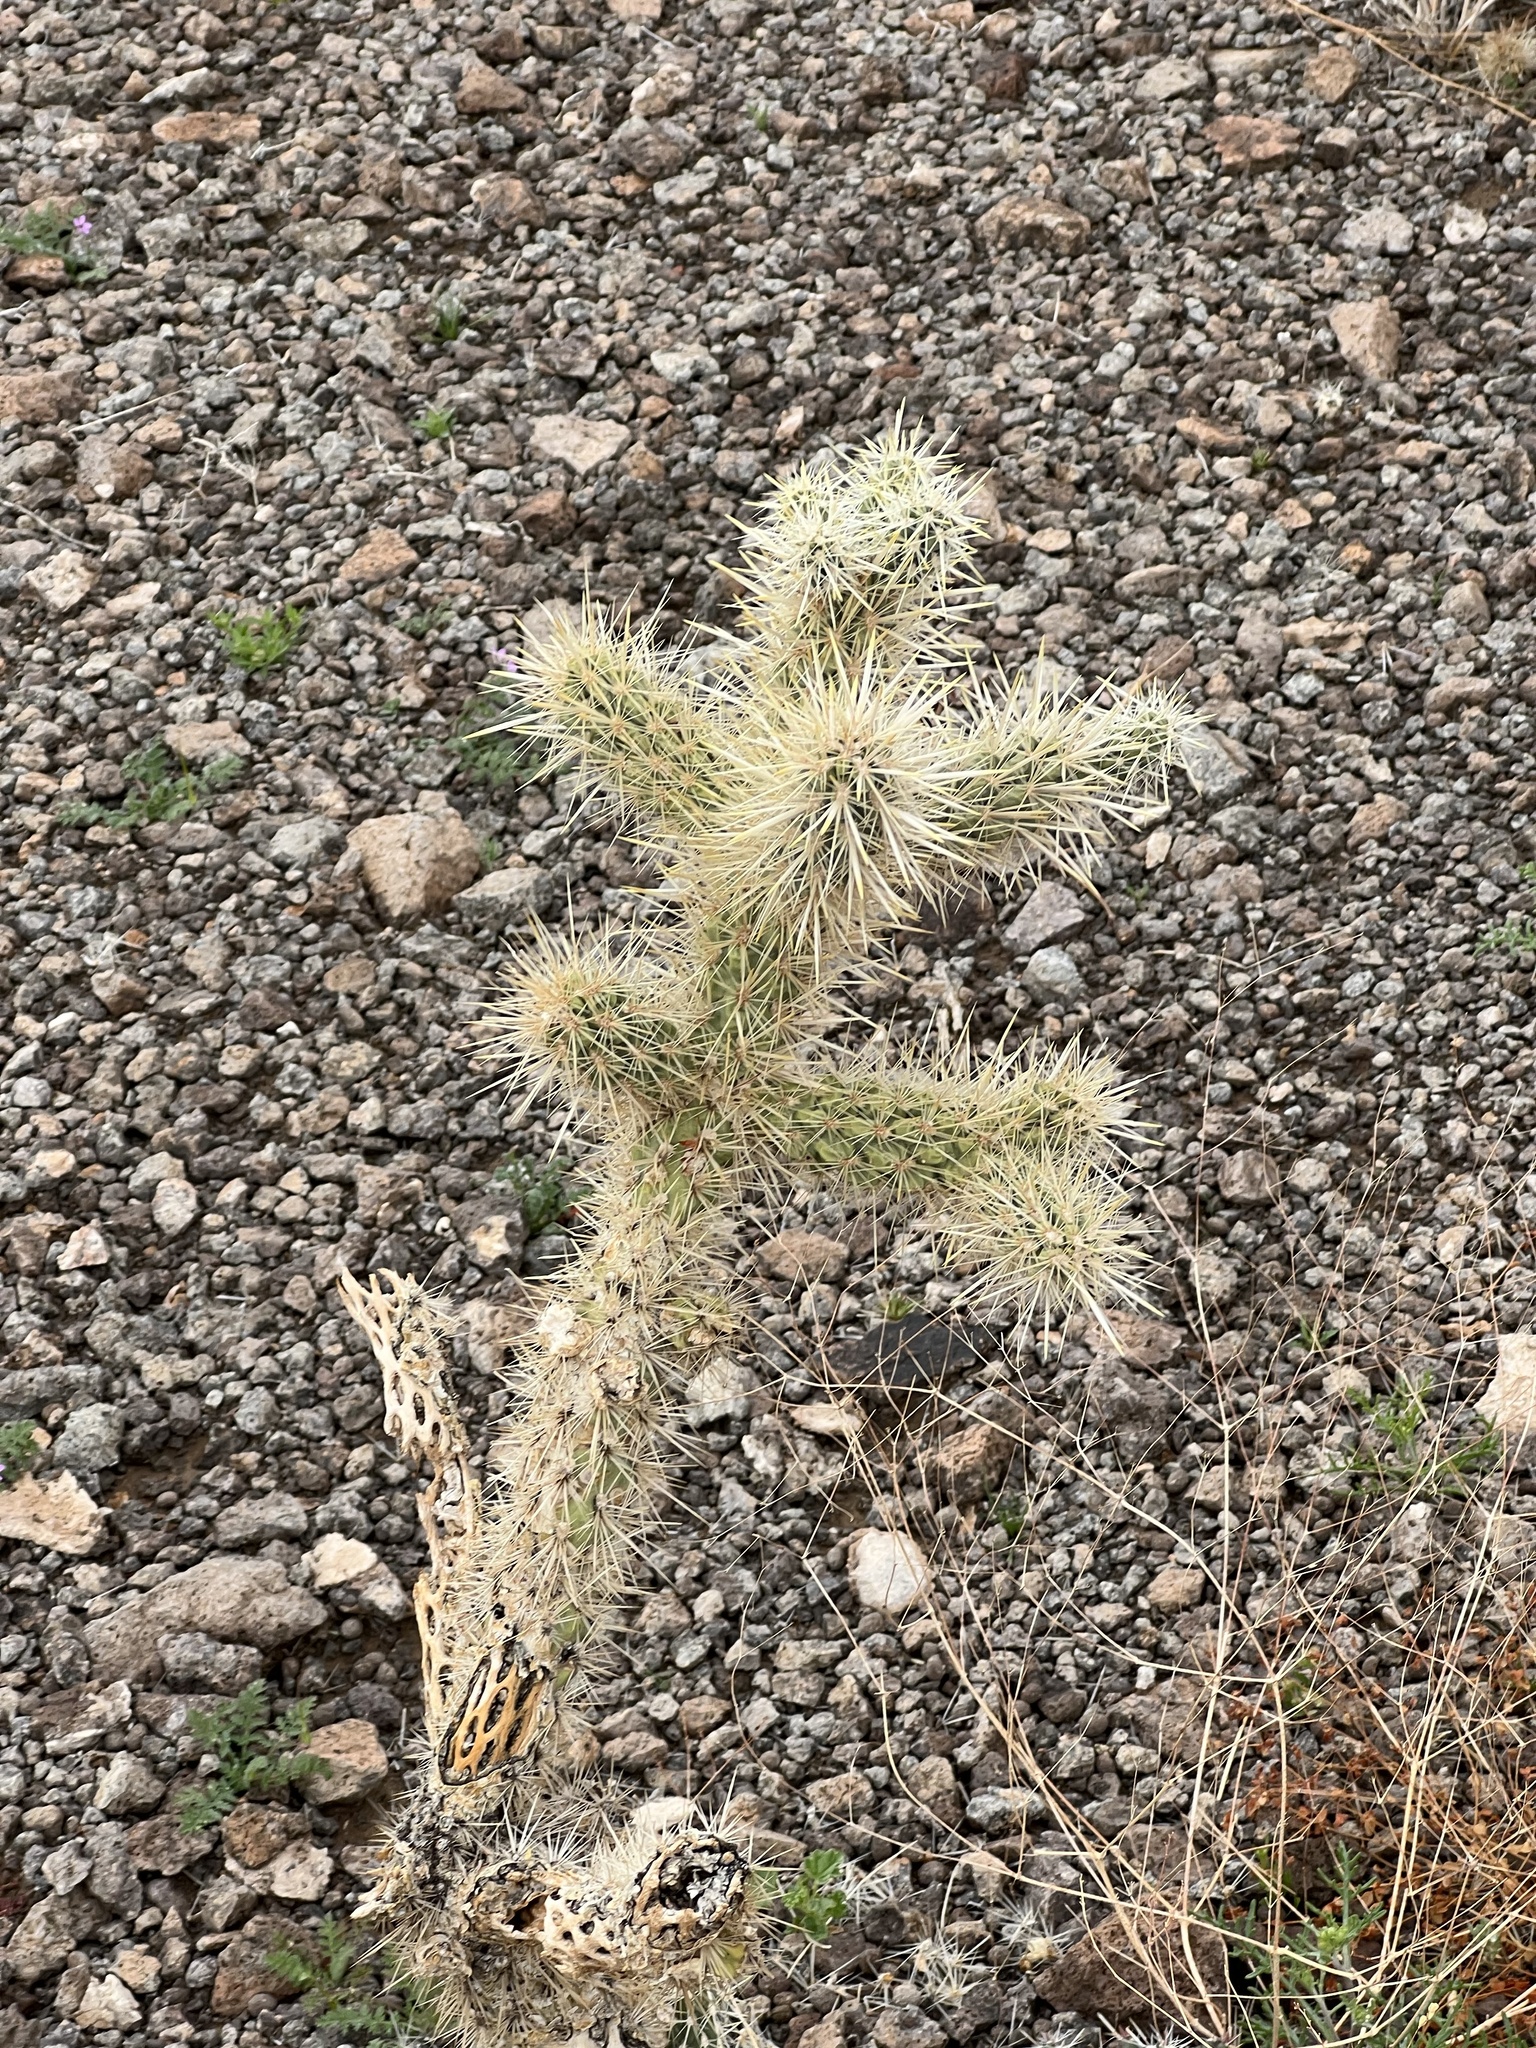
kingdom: Plantae
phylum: Tracheophyta
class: Magnoliopsida
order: Caryophyllales
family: Cactaceae
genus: Cylindropuntia
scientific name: Cylindropuntia echinocarpa
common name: Ground cholla
